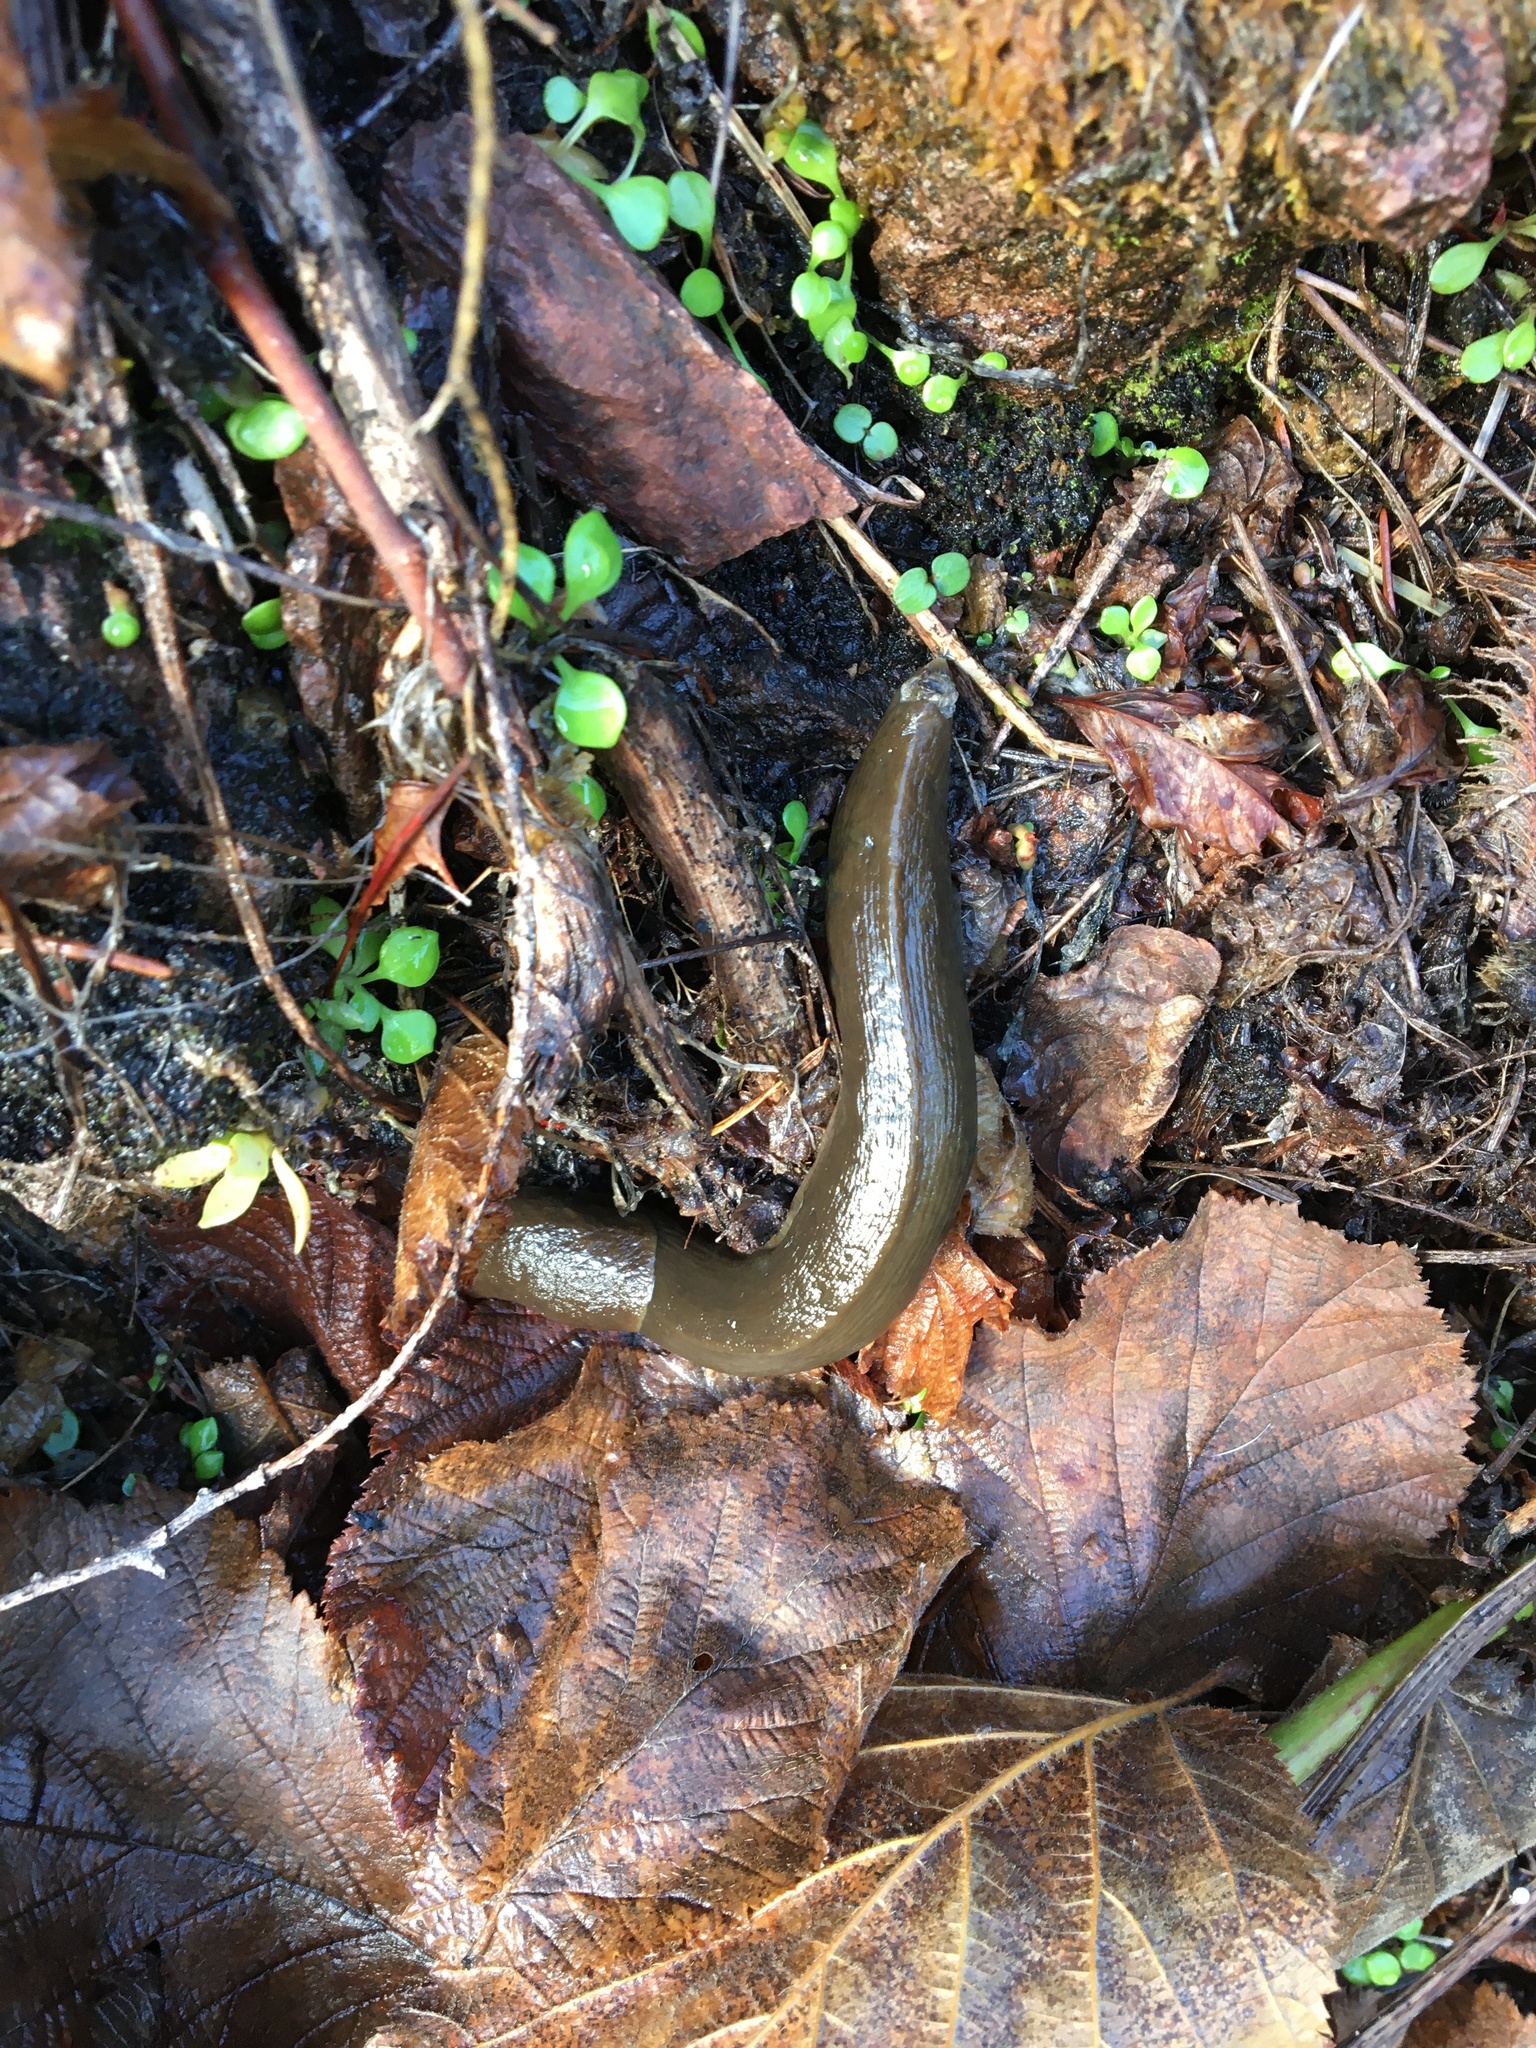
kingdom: Animalia
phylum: Mollusca
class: Gastropoda
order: Stylommatophora
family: Ariolimacidae
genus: Ariolimax
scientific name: Ariolimax columbianus
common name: Pacific banana slug
